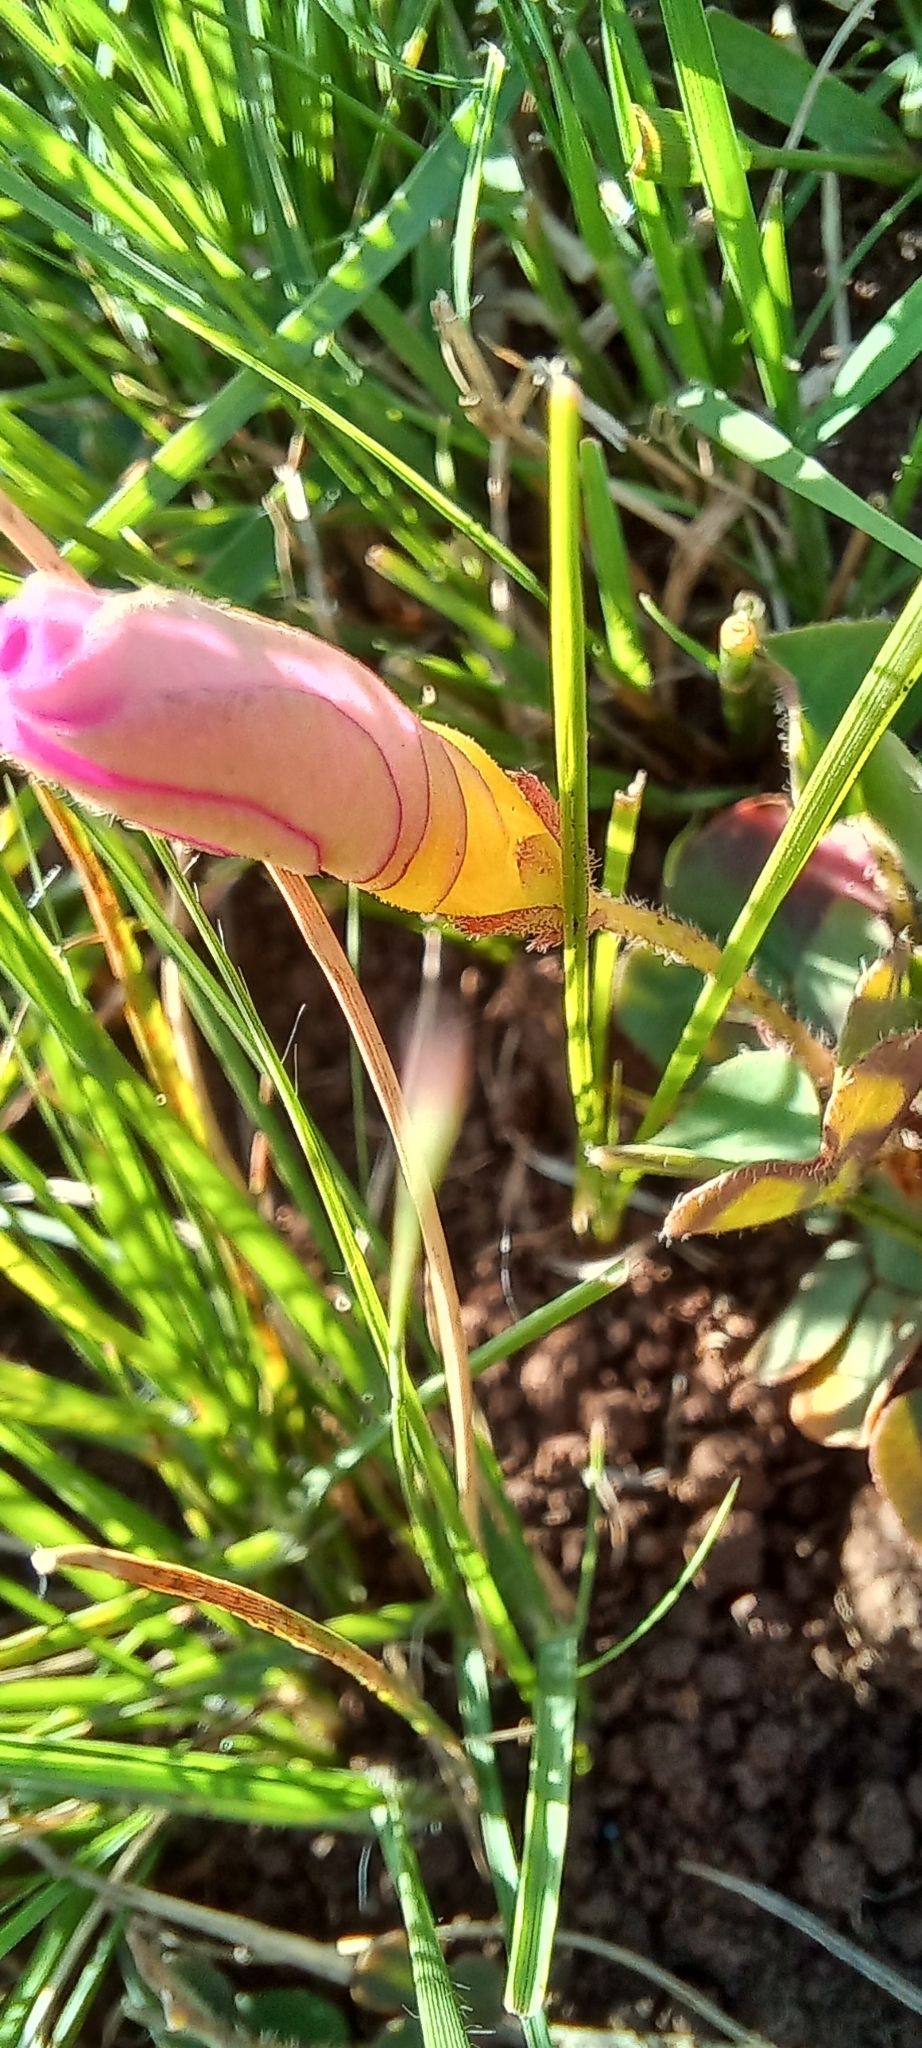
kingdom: Plantae
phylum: Tracheophyta
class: Magnoliopsida
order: Oxalidales
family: Oxalidaceae
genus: Oxalis
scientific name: Oxalis obliquifolia
